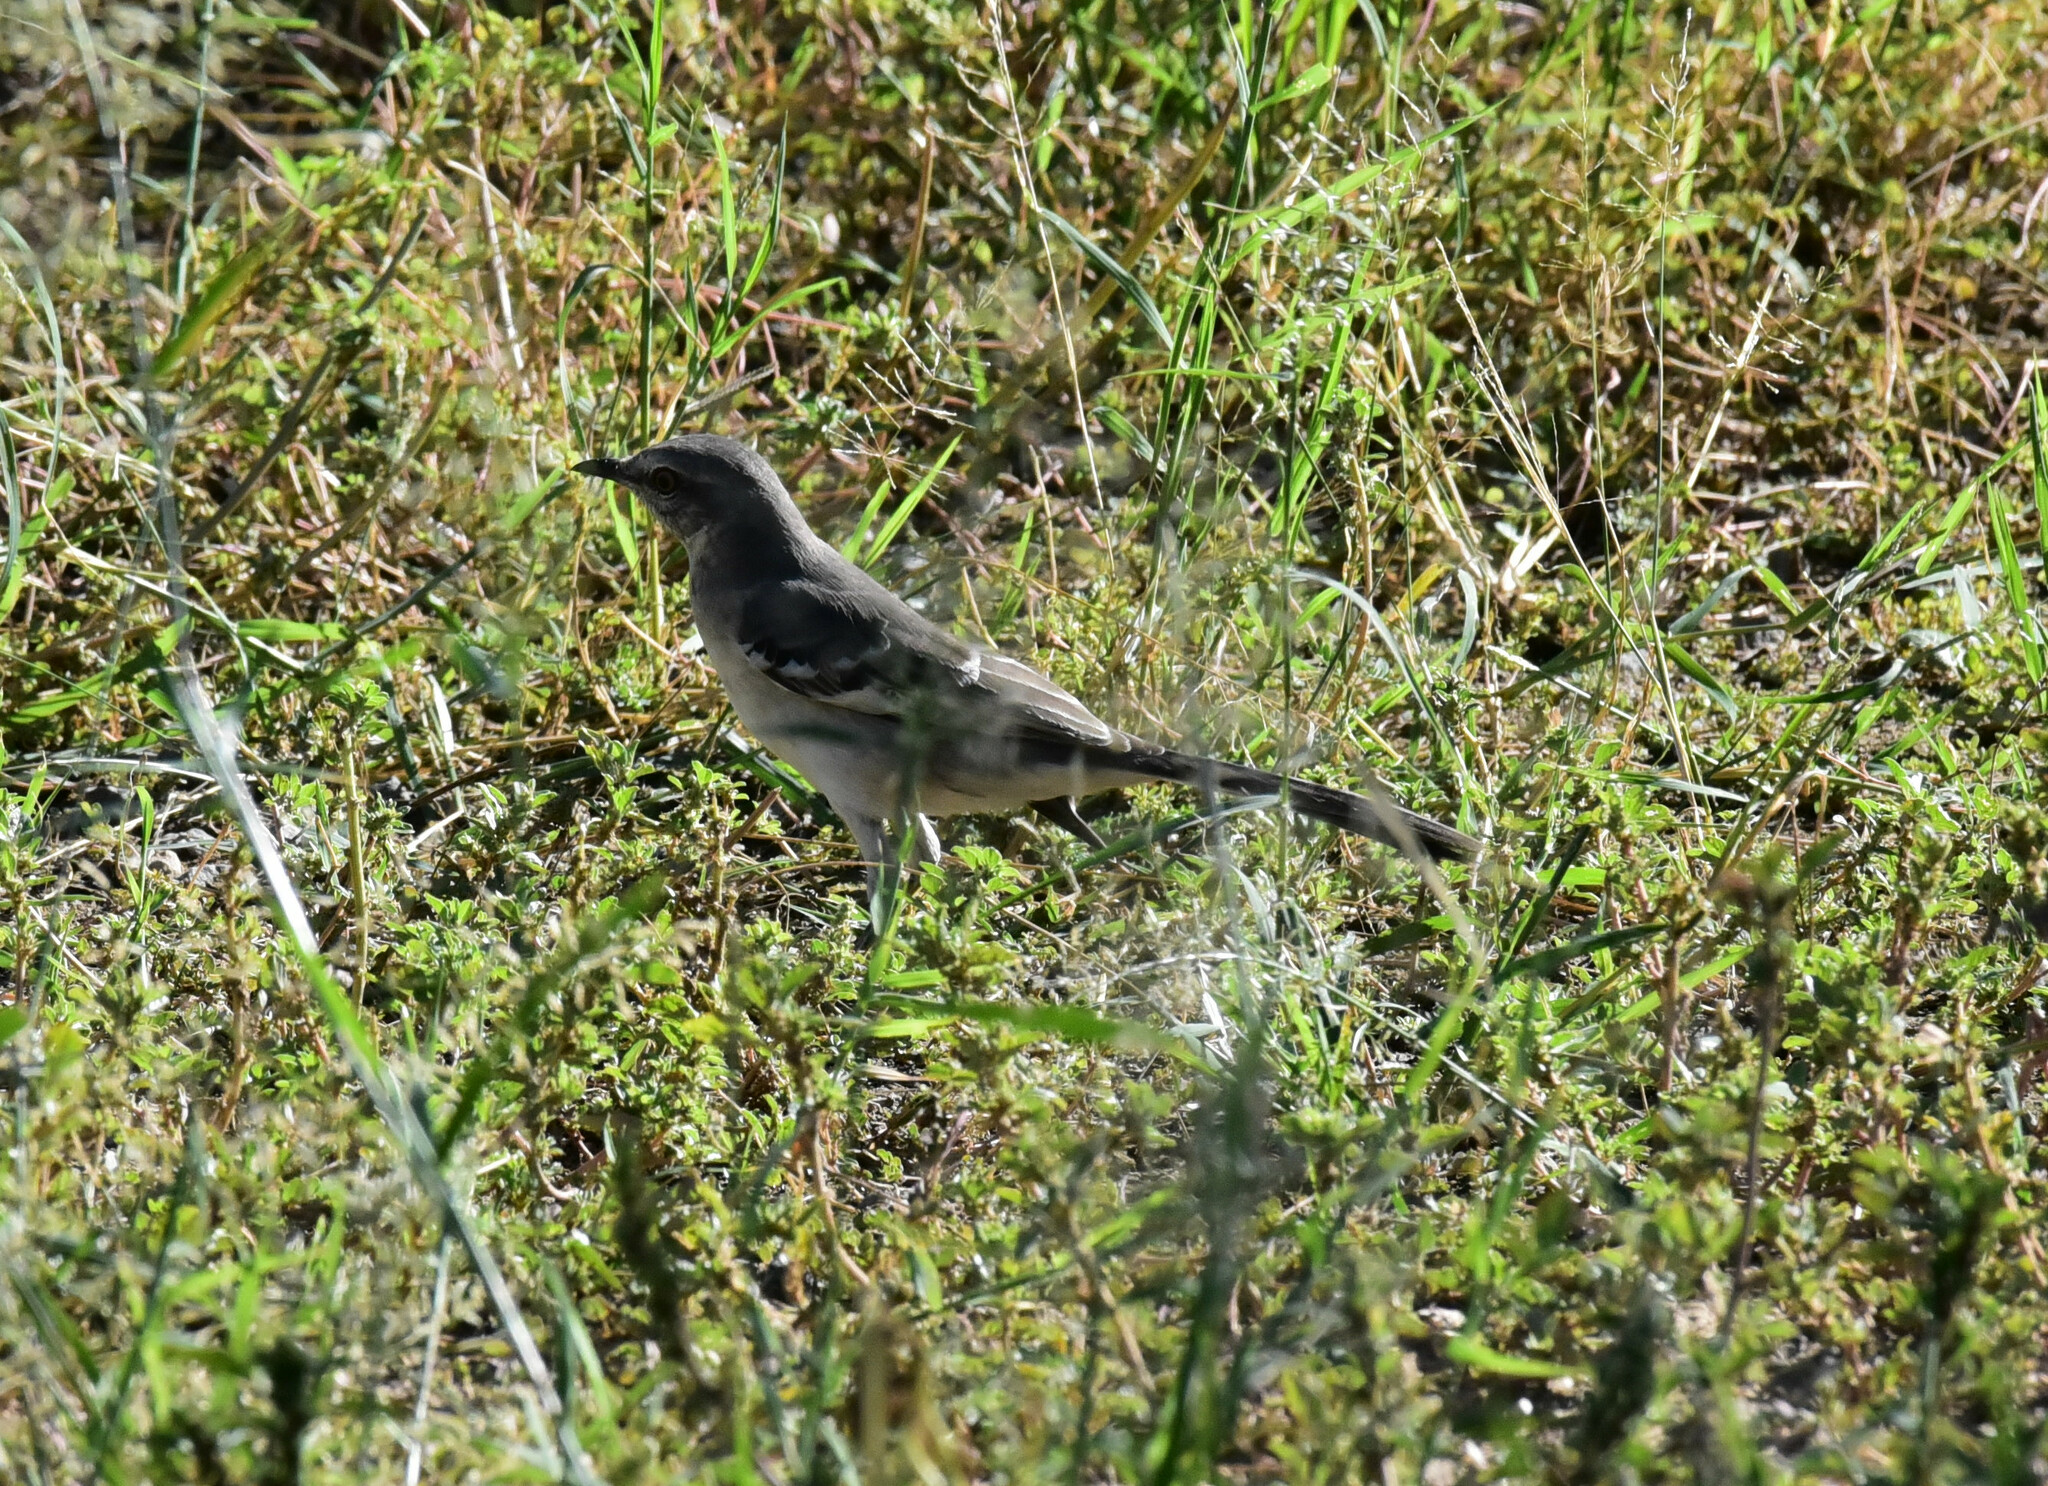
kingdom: Animalia
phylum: Chordata
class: Aves
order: Passeriformes
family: Mimidae
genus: Mimus
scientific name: Mimus polyglottos
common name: Northern mockingbird
